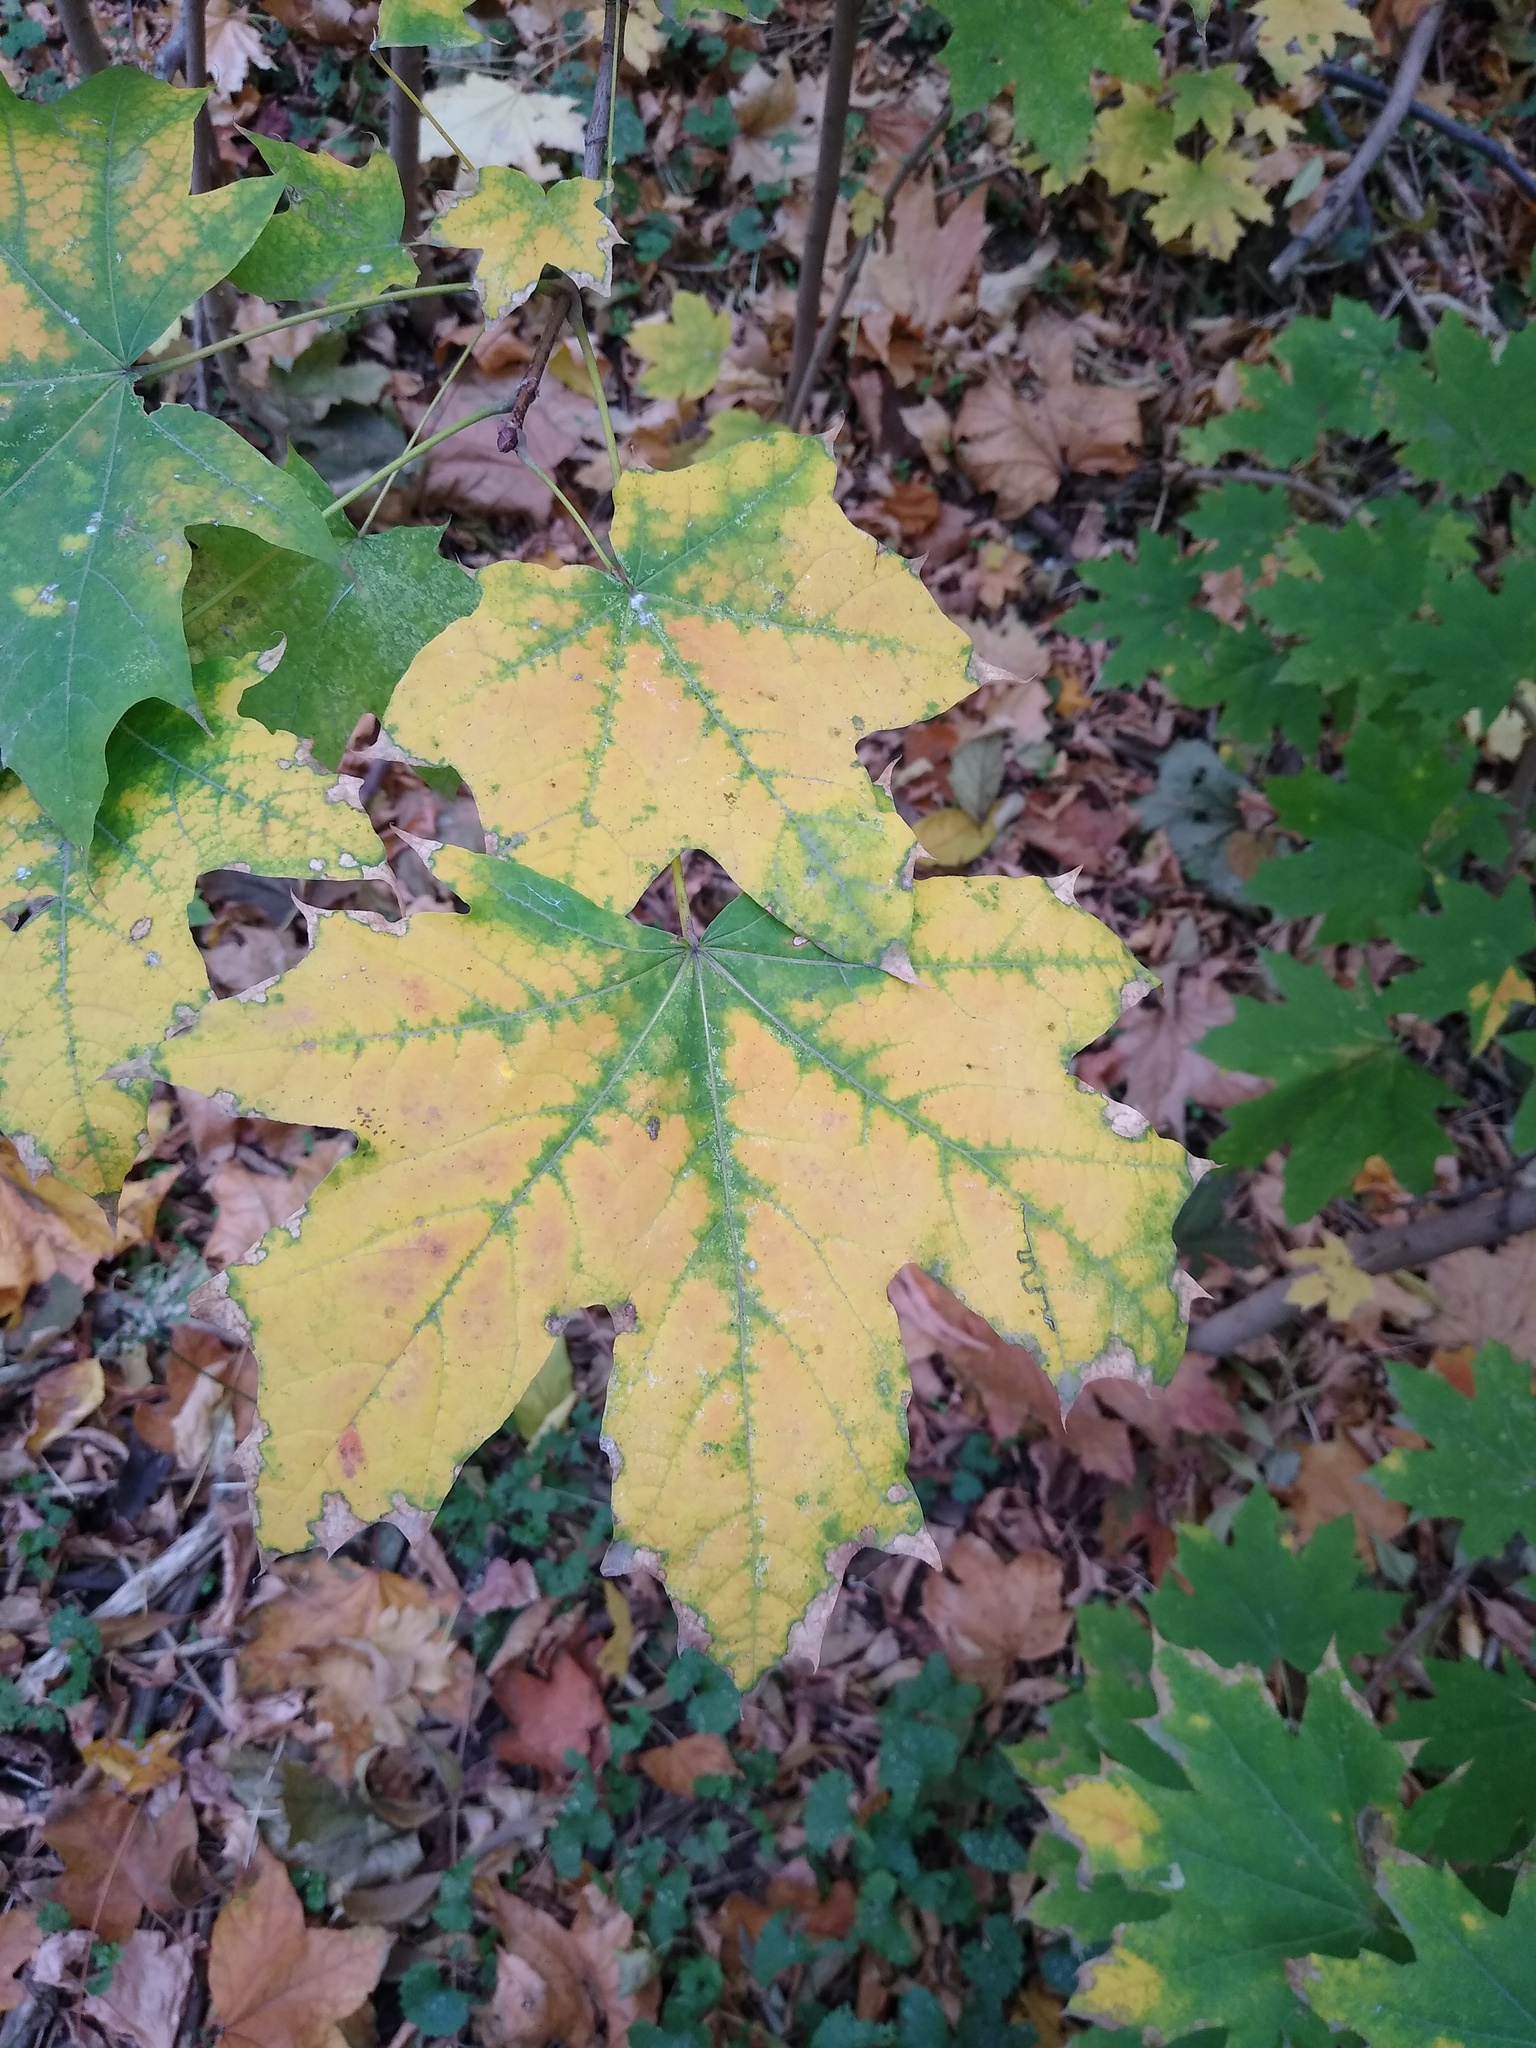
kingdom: Plantae
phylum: Tracheophyta
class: Magnoliopsida
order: Sapindales
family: Sapindaceae
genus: Acer
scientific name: Acer platanoides
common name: Norway maple
